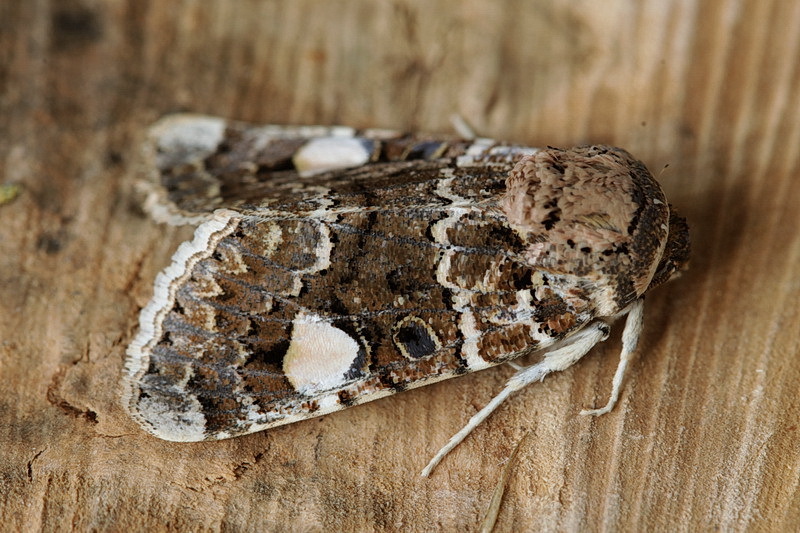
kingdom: Animalia
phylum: Arthropoda
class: Insecta
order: Lepidoptera
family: Noctuidae
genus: Oxytripia
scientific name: Oxytripia orbiculosa
